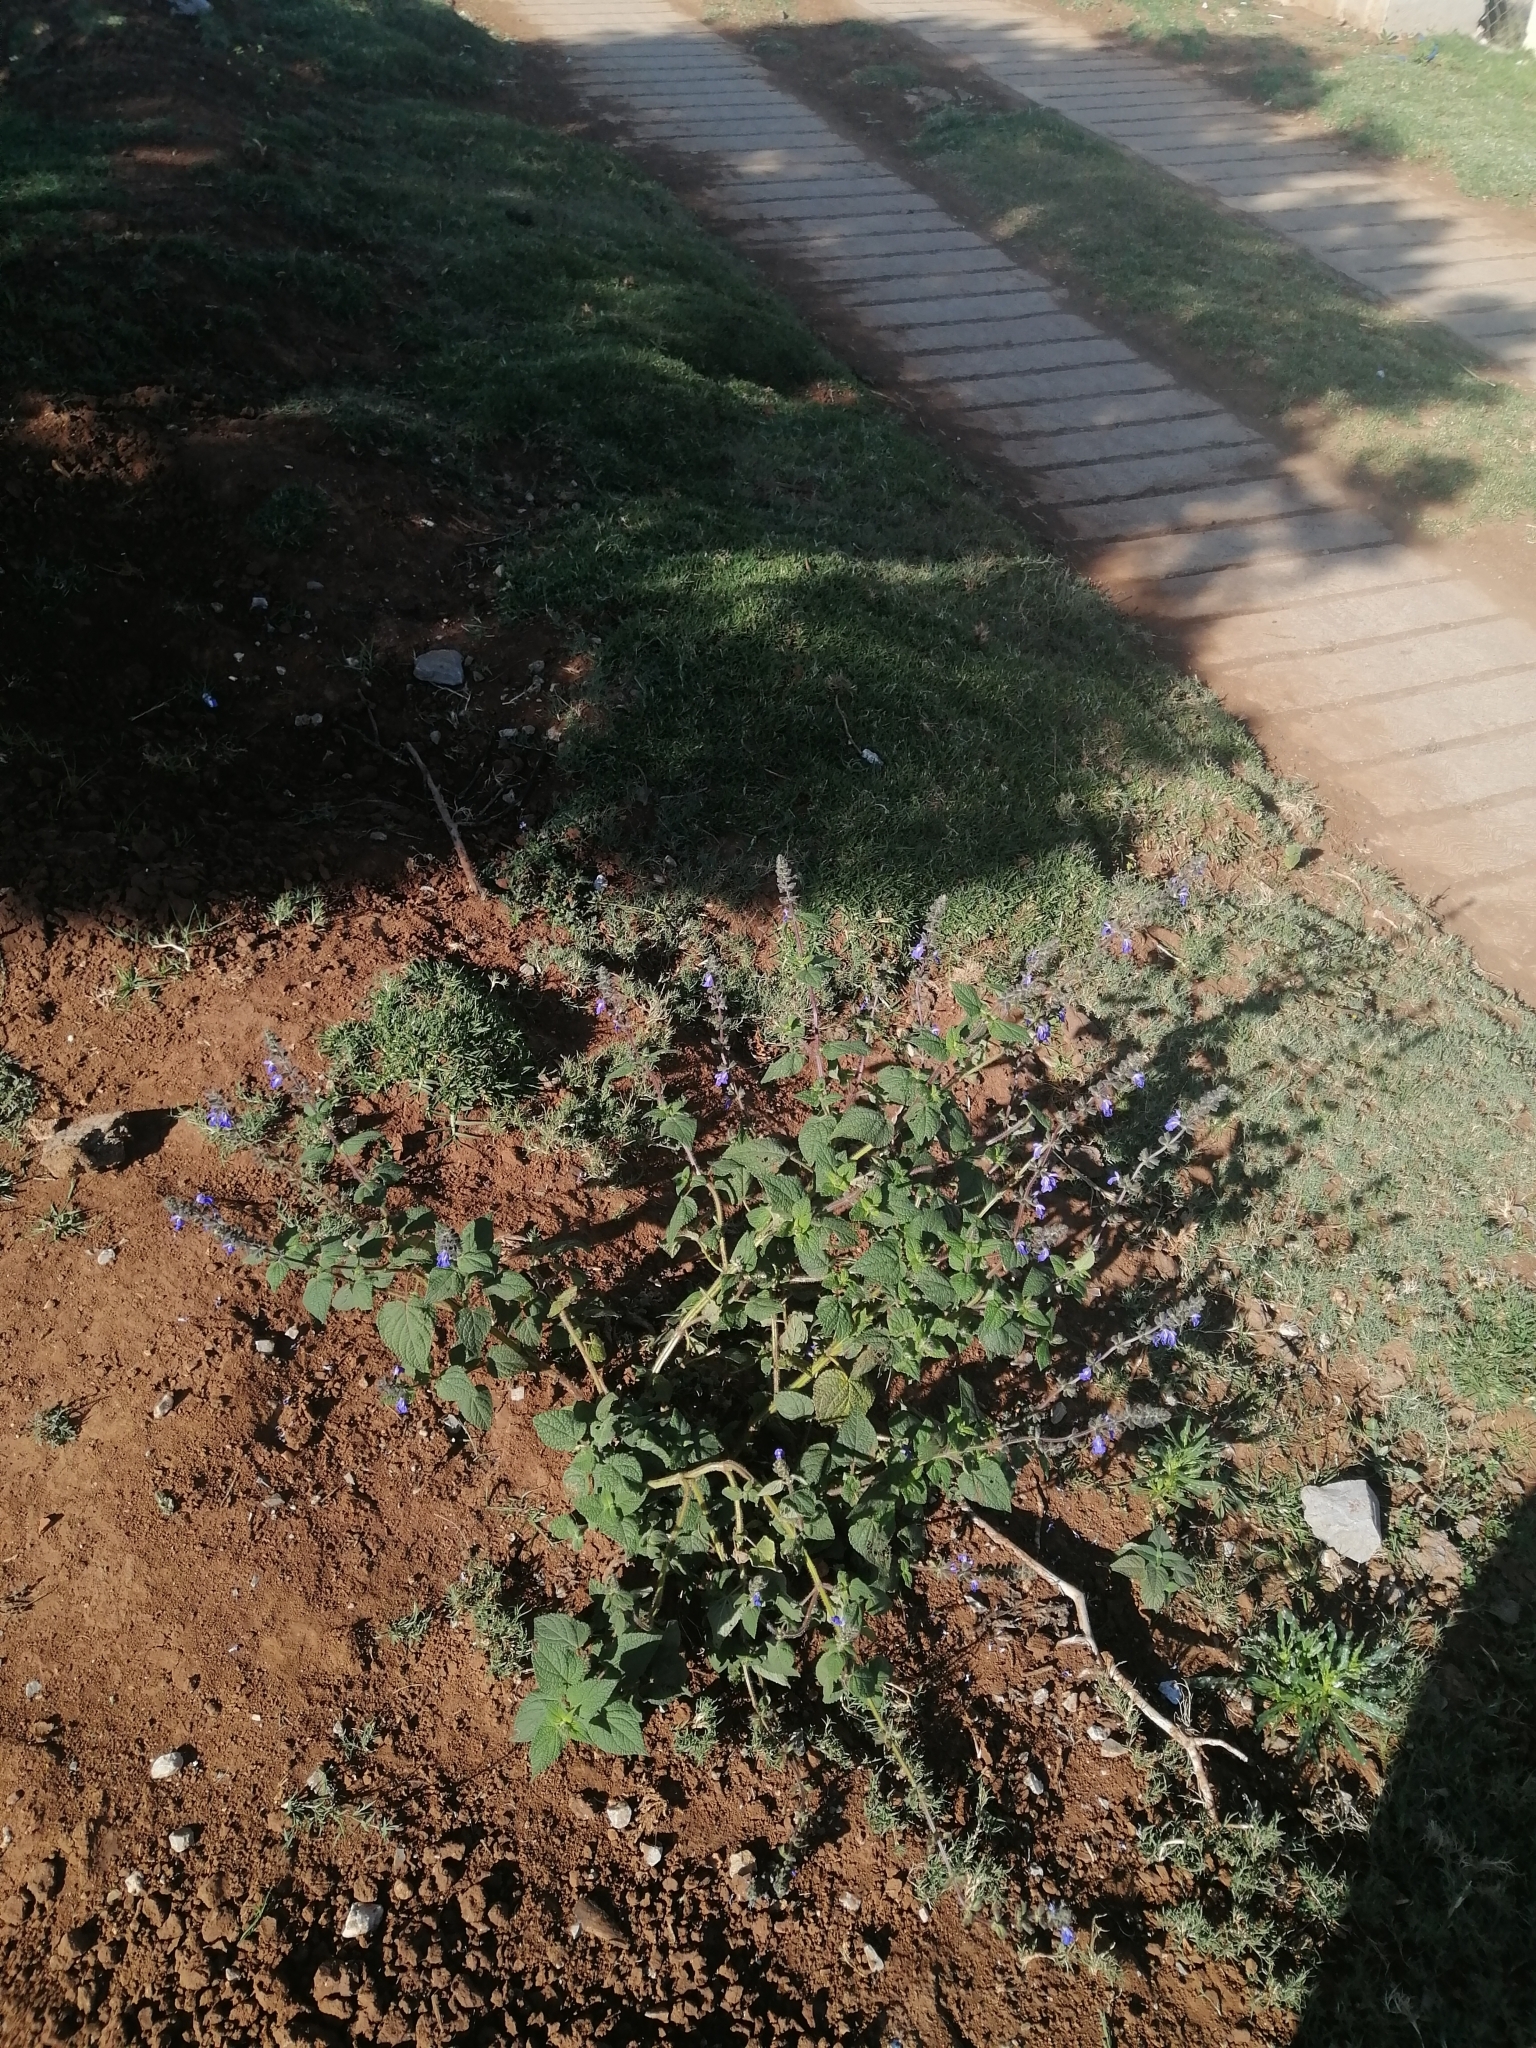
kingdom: Plantae
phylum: Tracheophyta
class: Magnoliopsida
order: Lamiales
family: Lamiaceae
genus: Salvia
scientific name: Salvia circinnata
